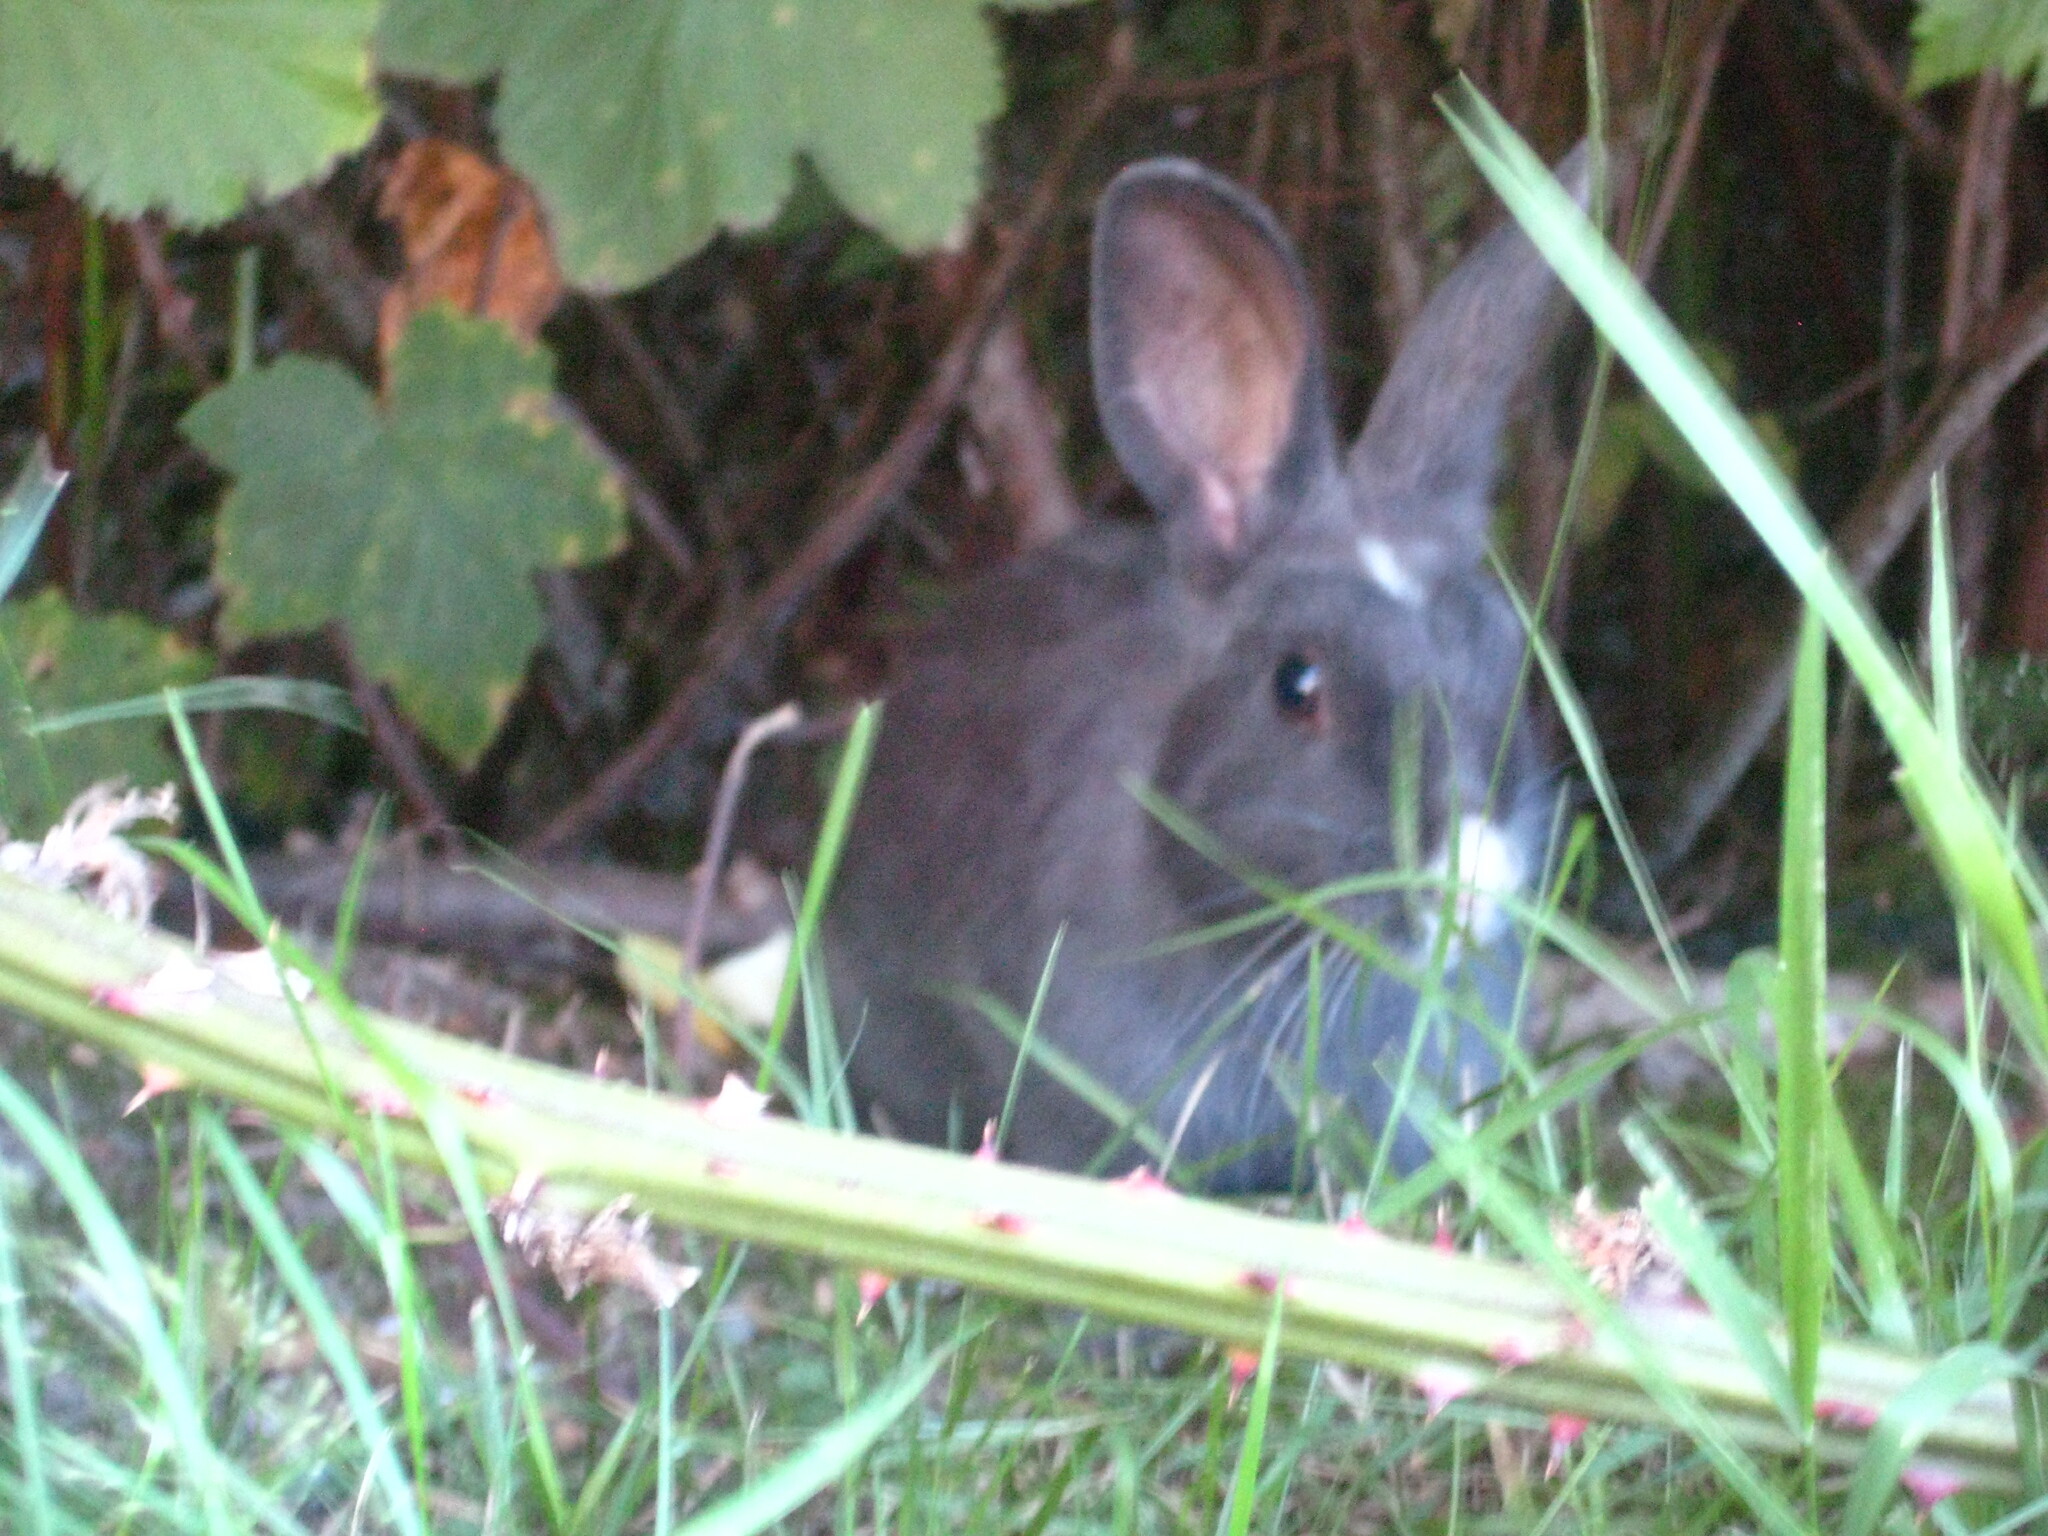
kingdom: Animalia
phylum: Chordata
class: Mammalia
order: Lagomorpha
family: Leporidae
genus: Oryctolagus
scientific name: Oryctolagus cuniculus
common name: European rabbit
